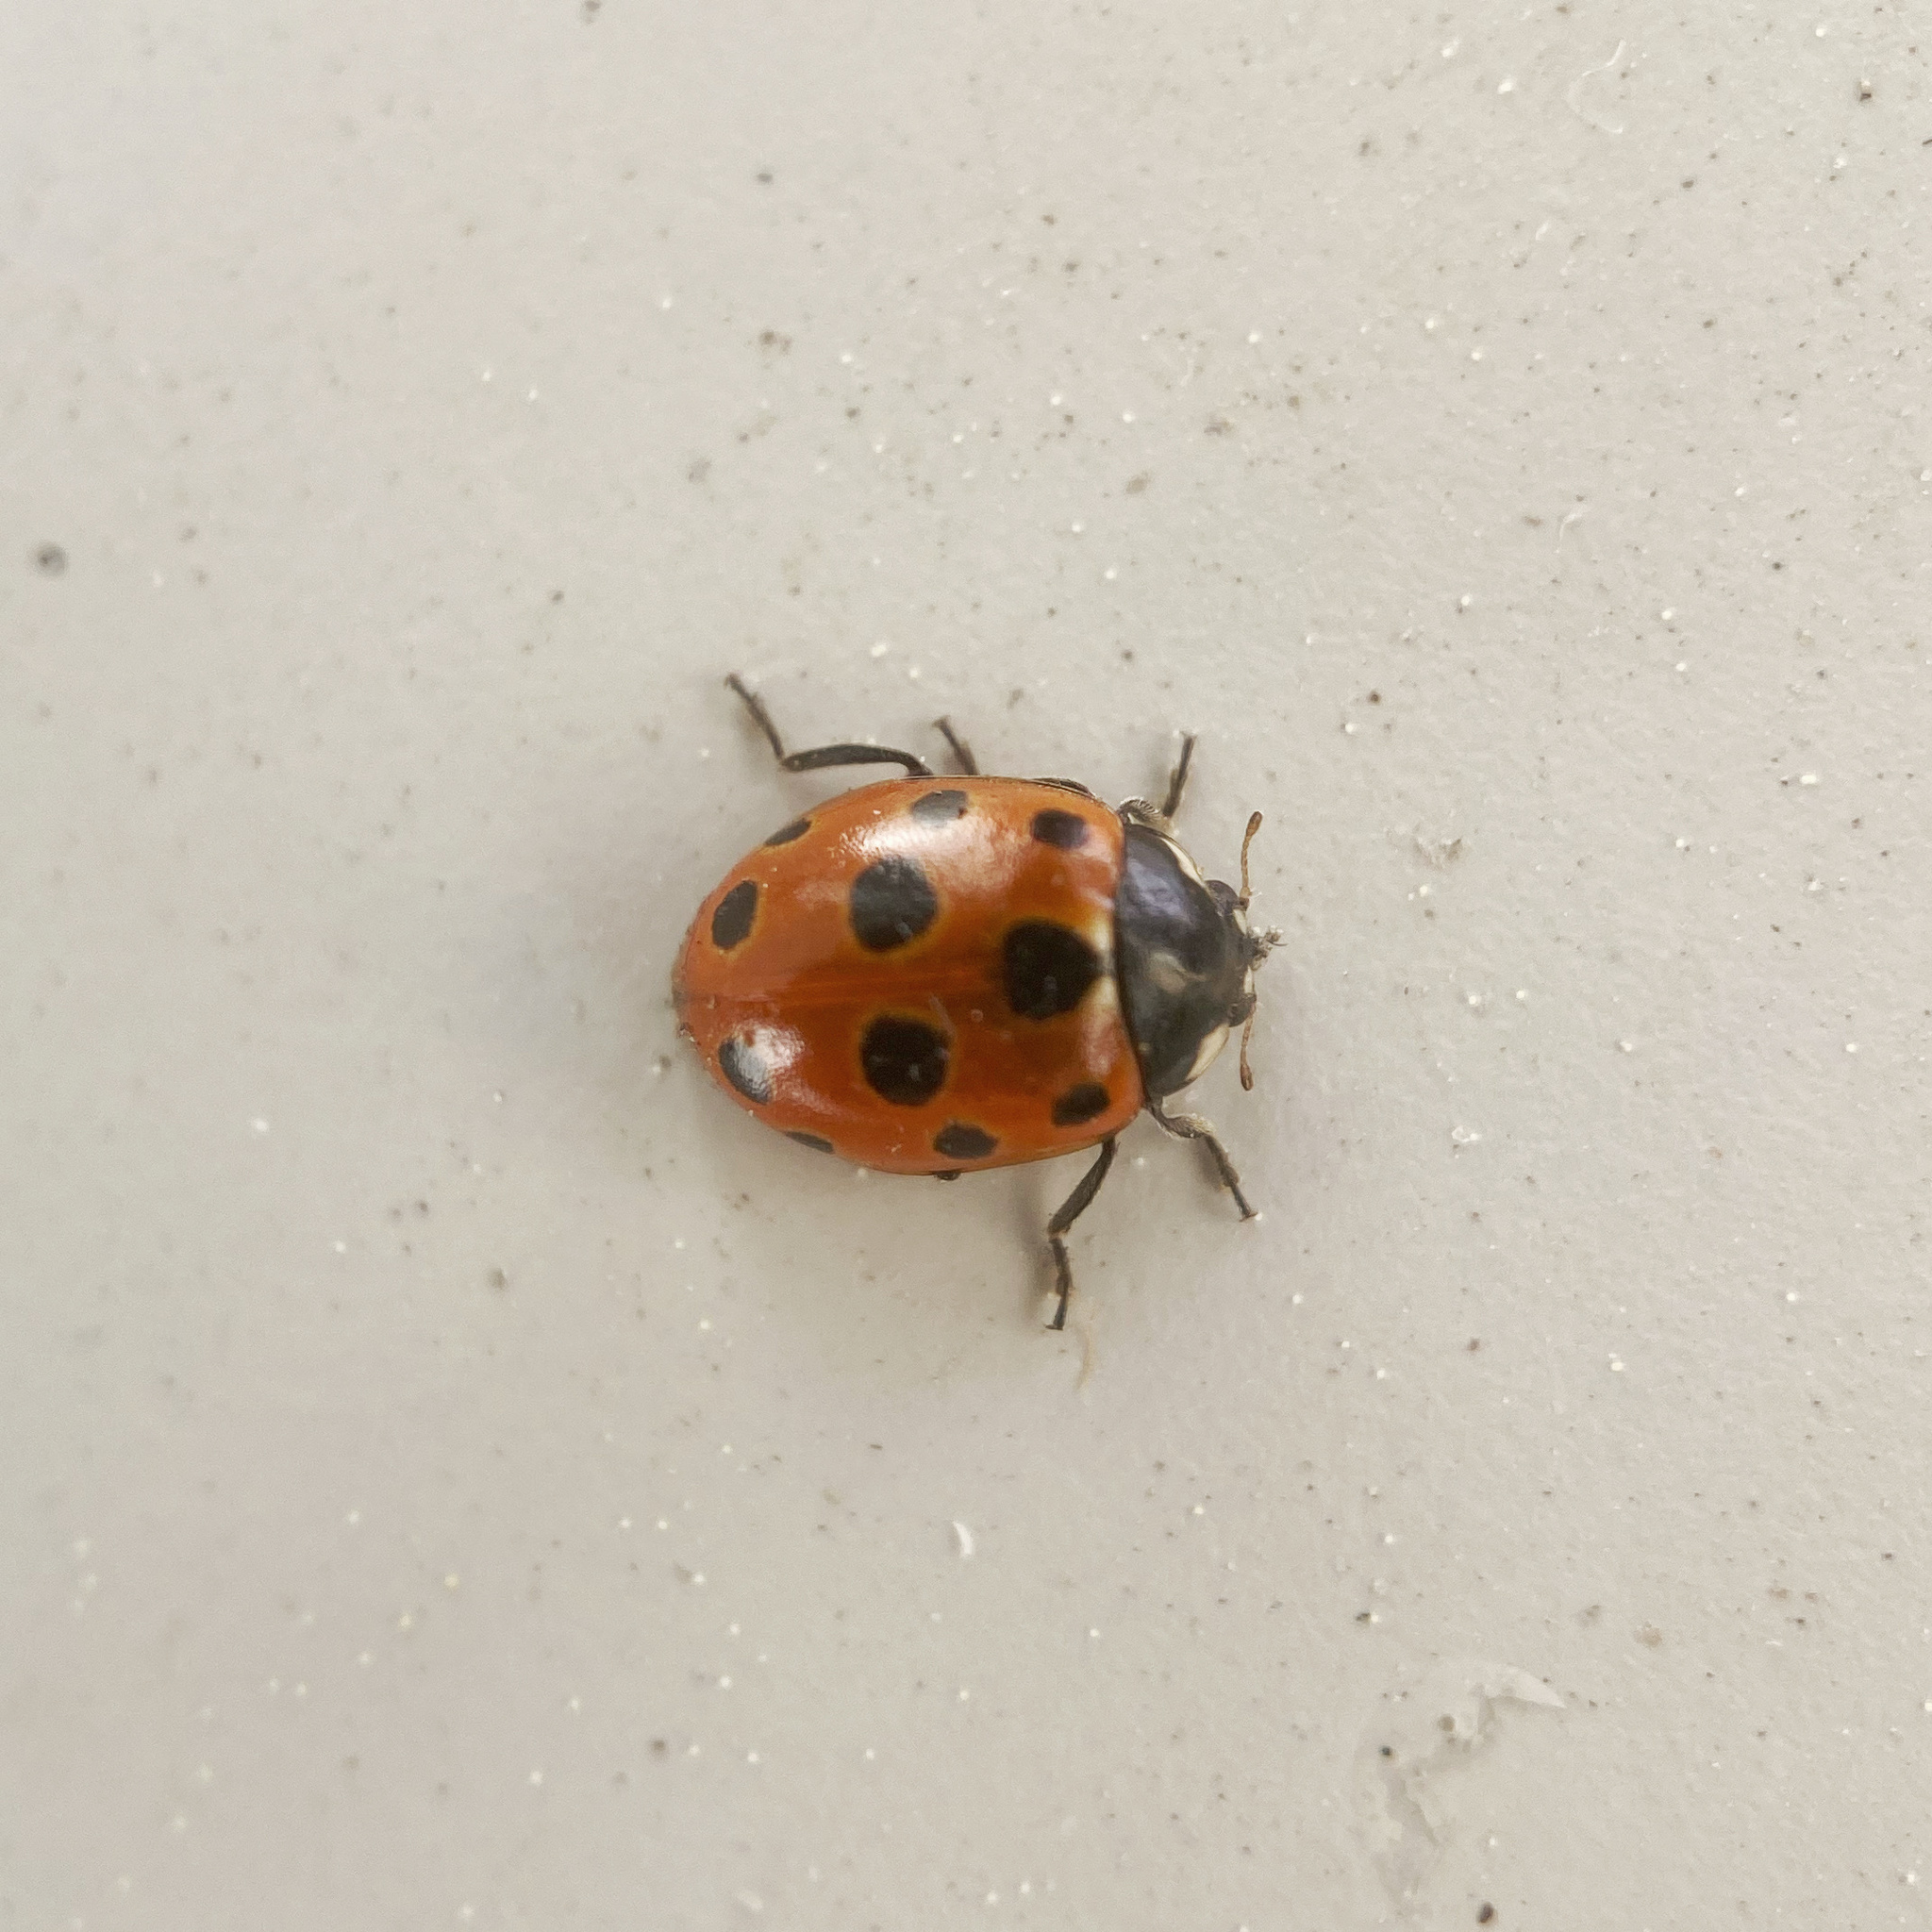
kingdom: Animalia
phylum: Arthropoda
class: Insecta
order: Coleoptera
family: Coccinellidae
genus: Coccinella
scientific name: Coccinella undecimpunctata
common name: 11-spot ladybird
